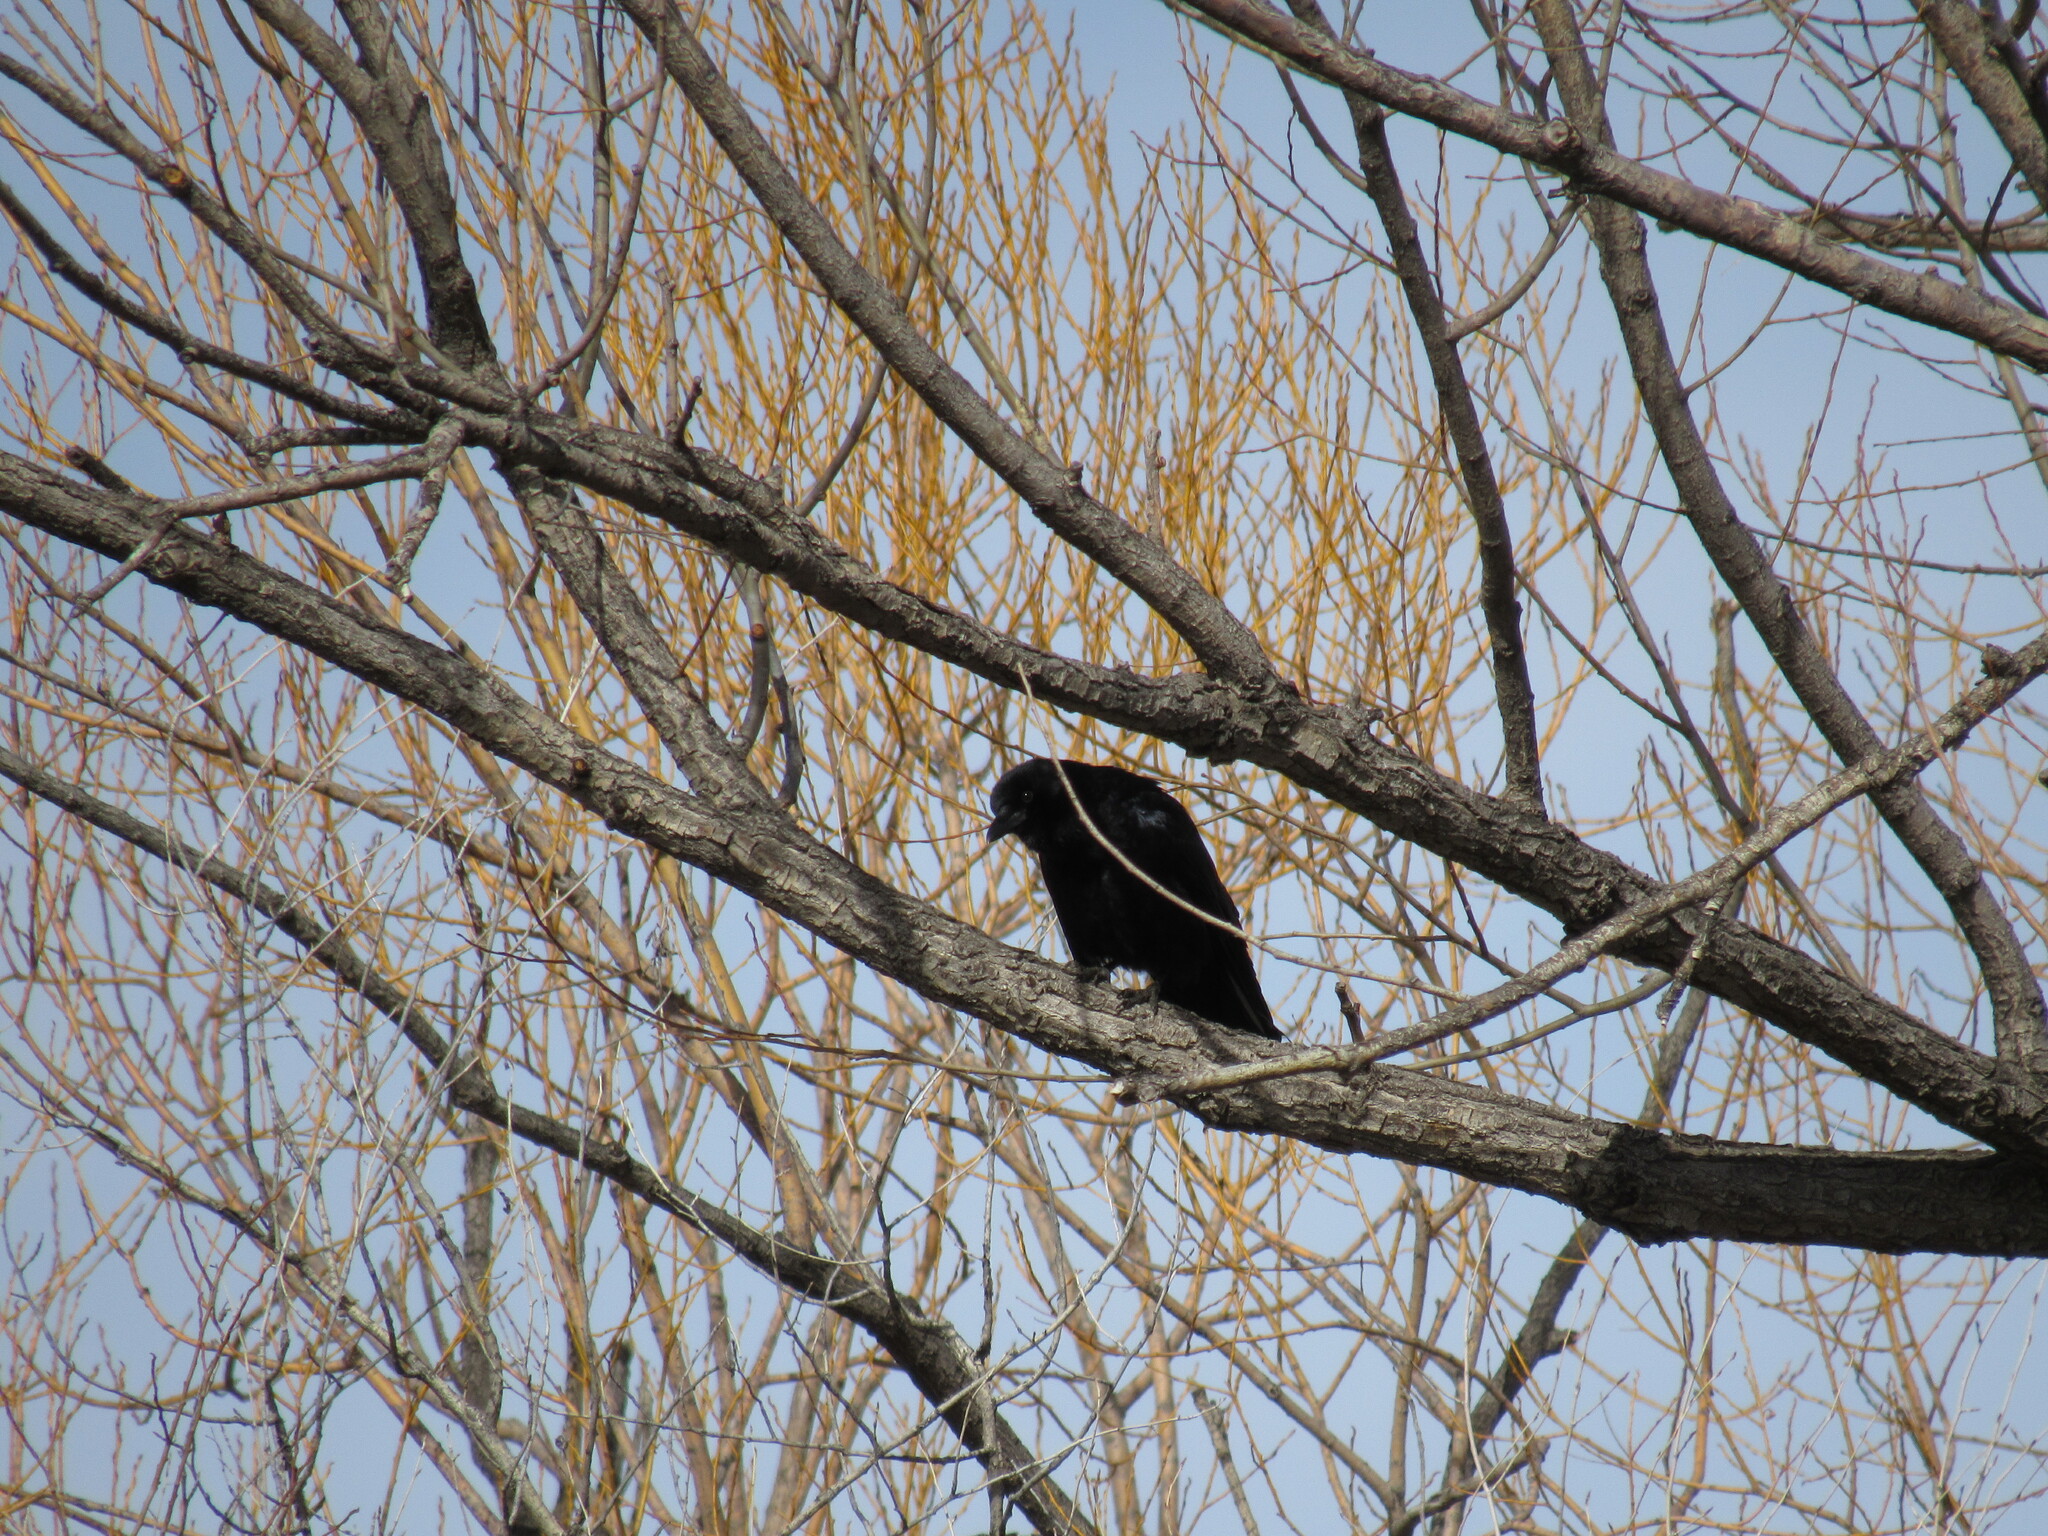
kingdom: Animalia
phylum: Chordata
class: Aves
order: Passeriformes
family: Corvidae
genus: Corvus
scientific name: Corvus brachyrhynchos
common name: American crow
